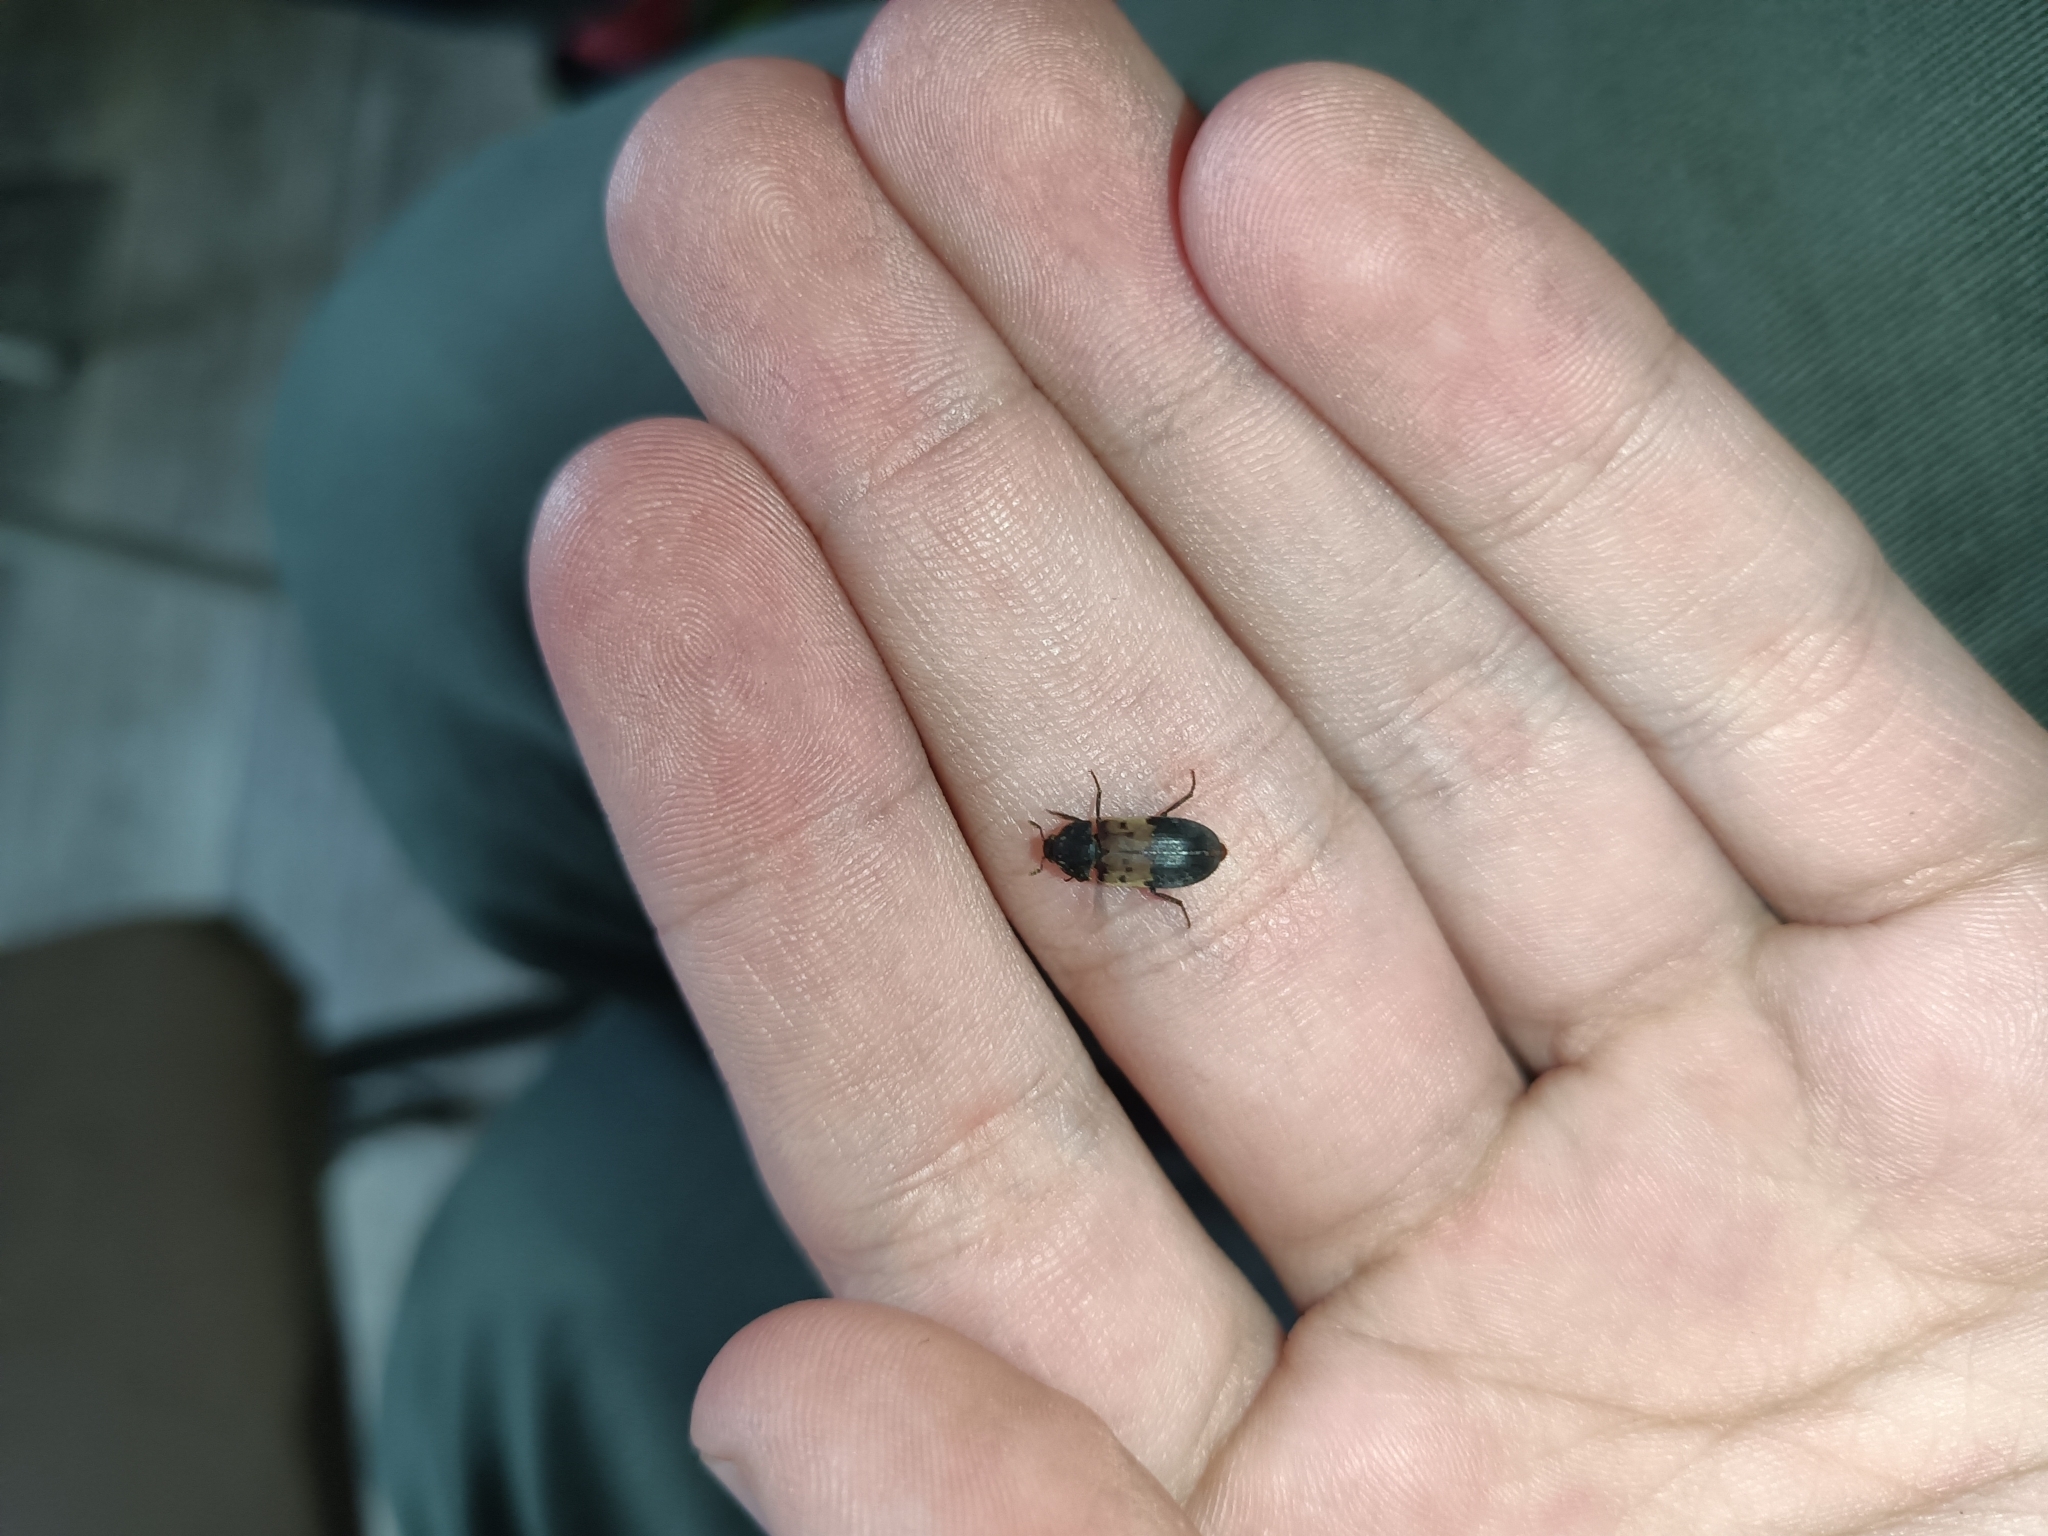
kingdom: Animalia
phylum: Arthropoda
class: Insecta
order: Coleoptera
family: Dermestidae
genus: Dermestes
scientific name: Dermestes lardarius
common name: Larder beetle
